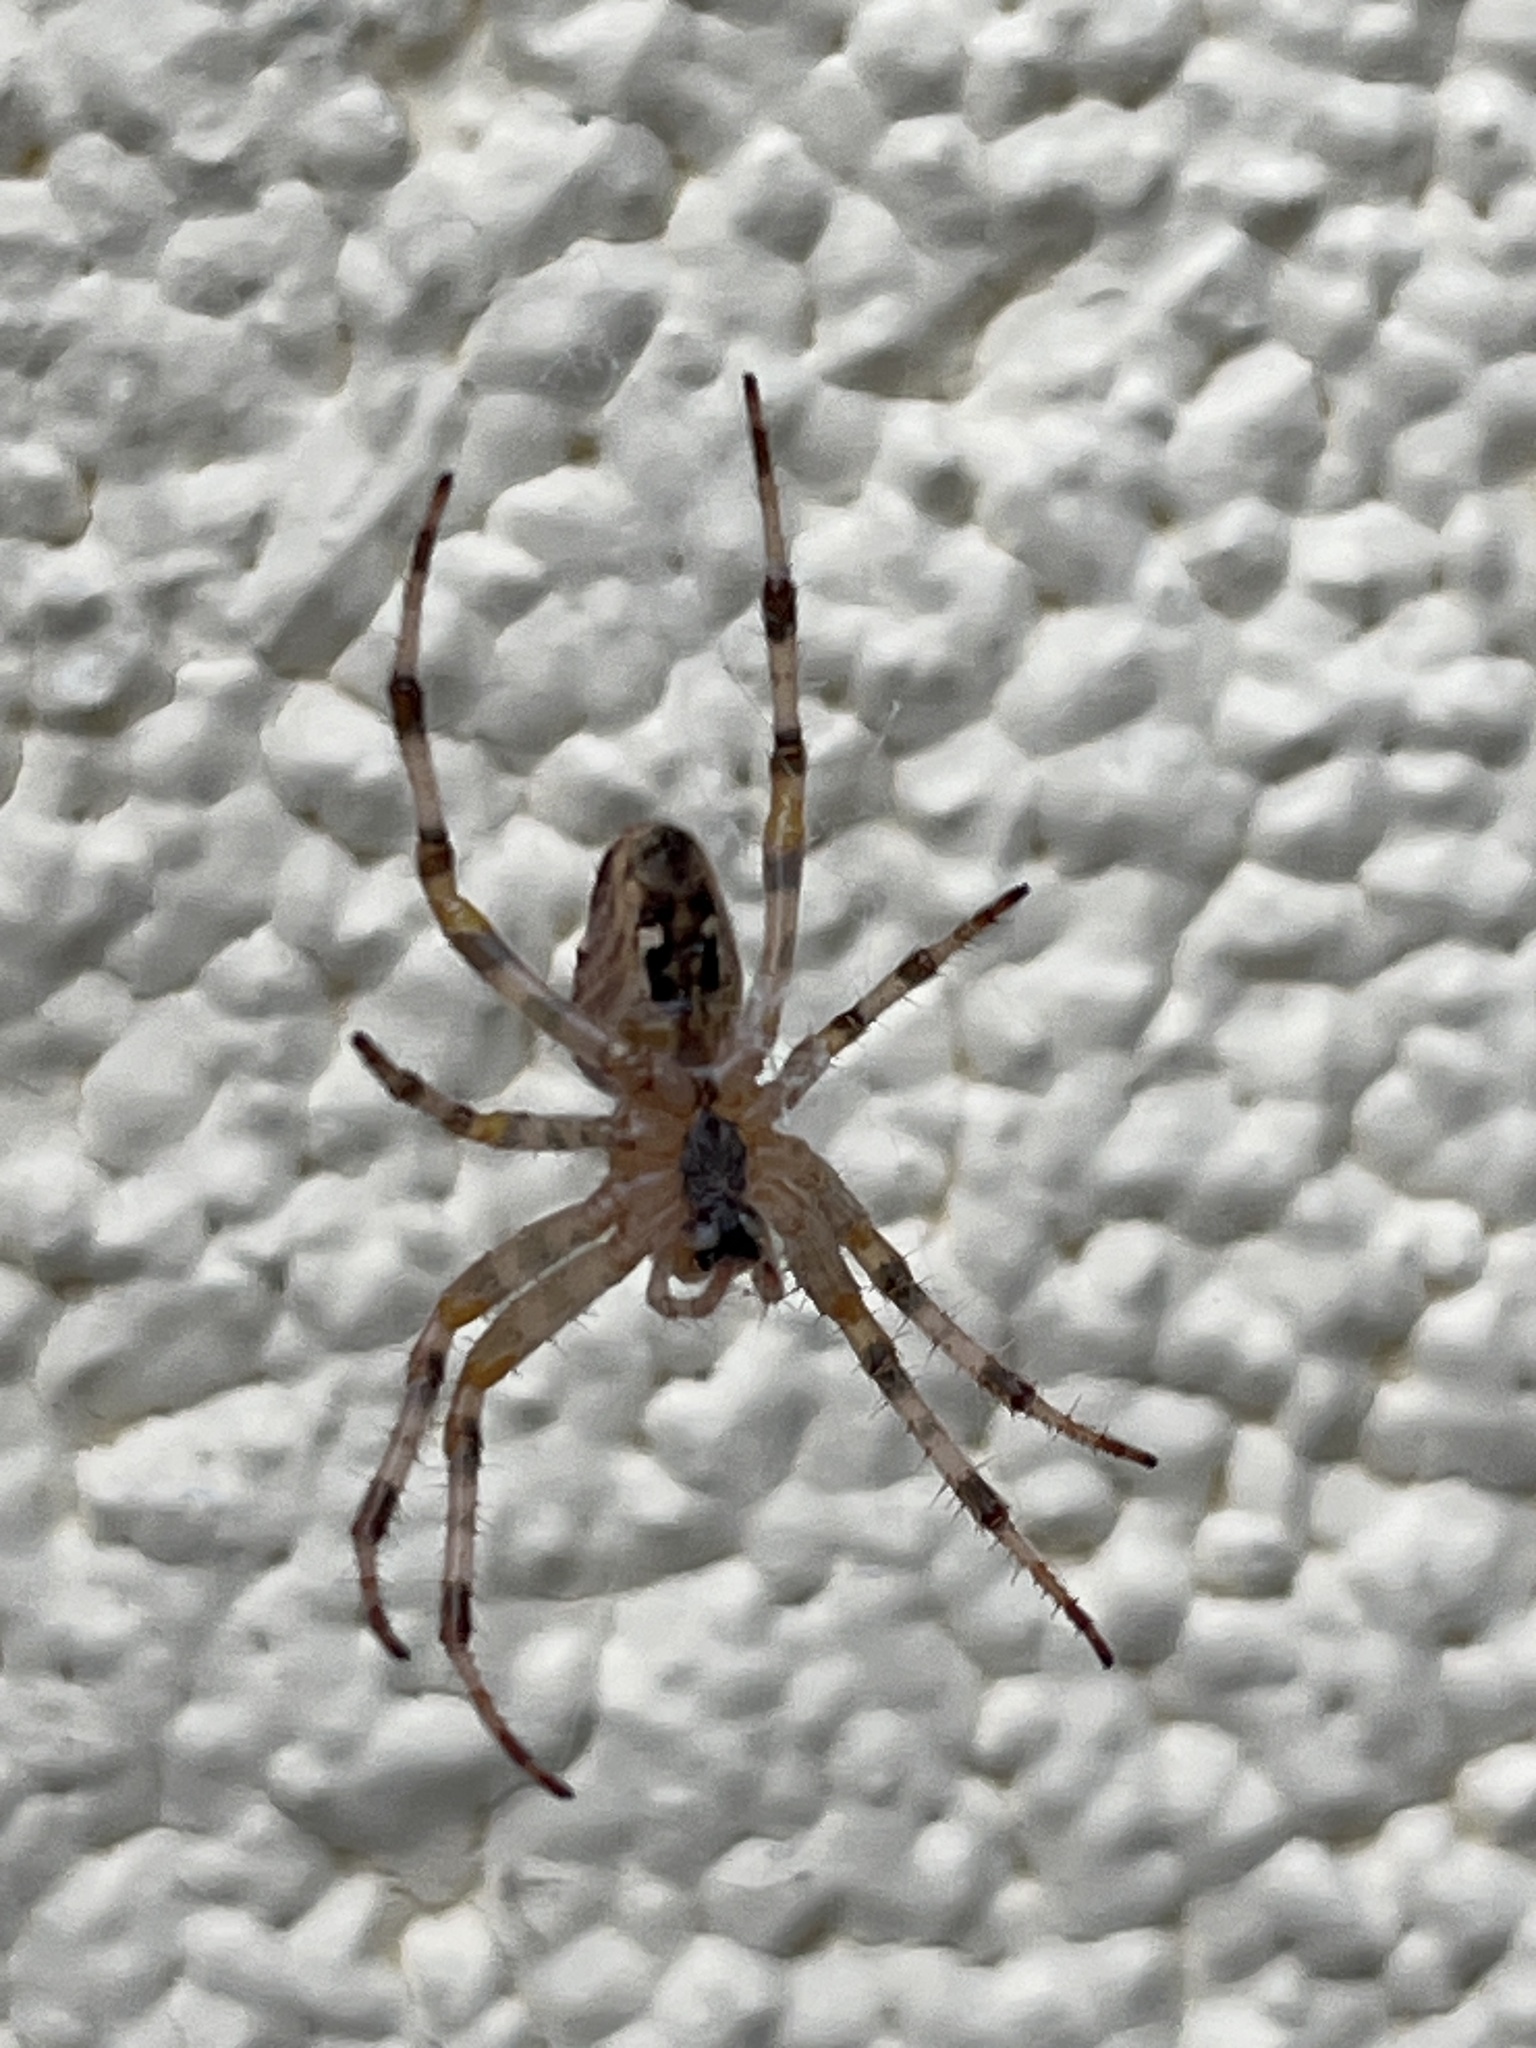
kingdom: Animalia
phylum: Arthropoda
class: Arachnida
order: Araneae
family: Araneidae
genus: Araneus
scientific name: Araneus diadematus
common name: Cross orbweaver
